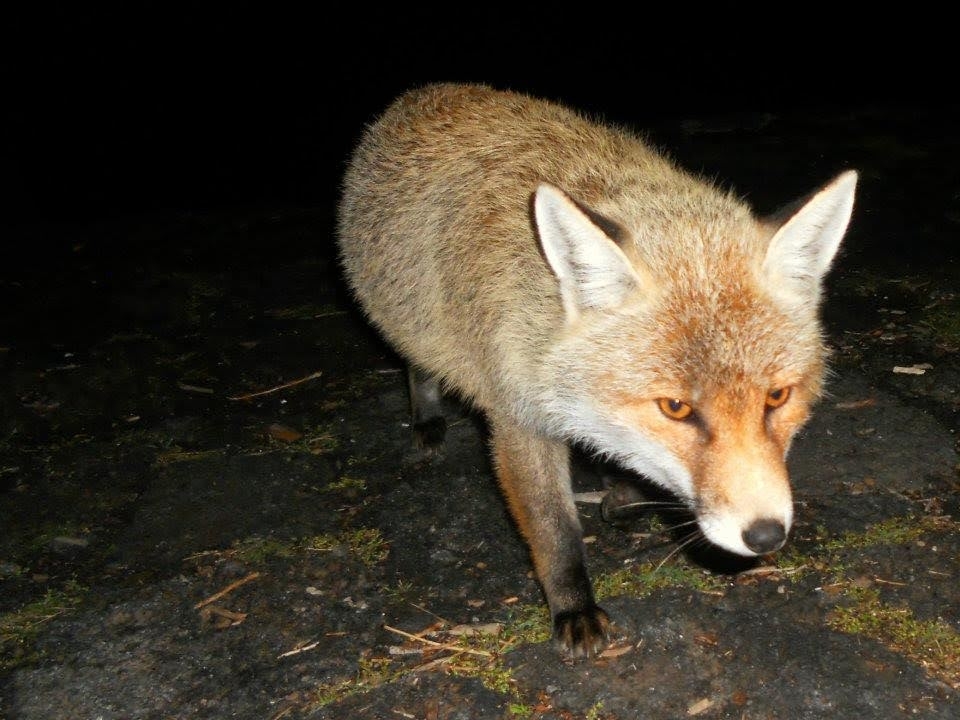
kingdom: Animalia
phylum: Chordata
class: Mammalia
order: Carnivora
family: Canidae
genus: Vulpes
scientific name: Vulpes vulpes
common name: Red fox
